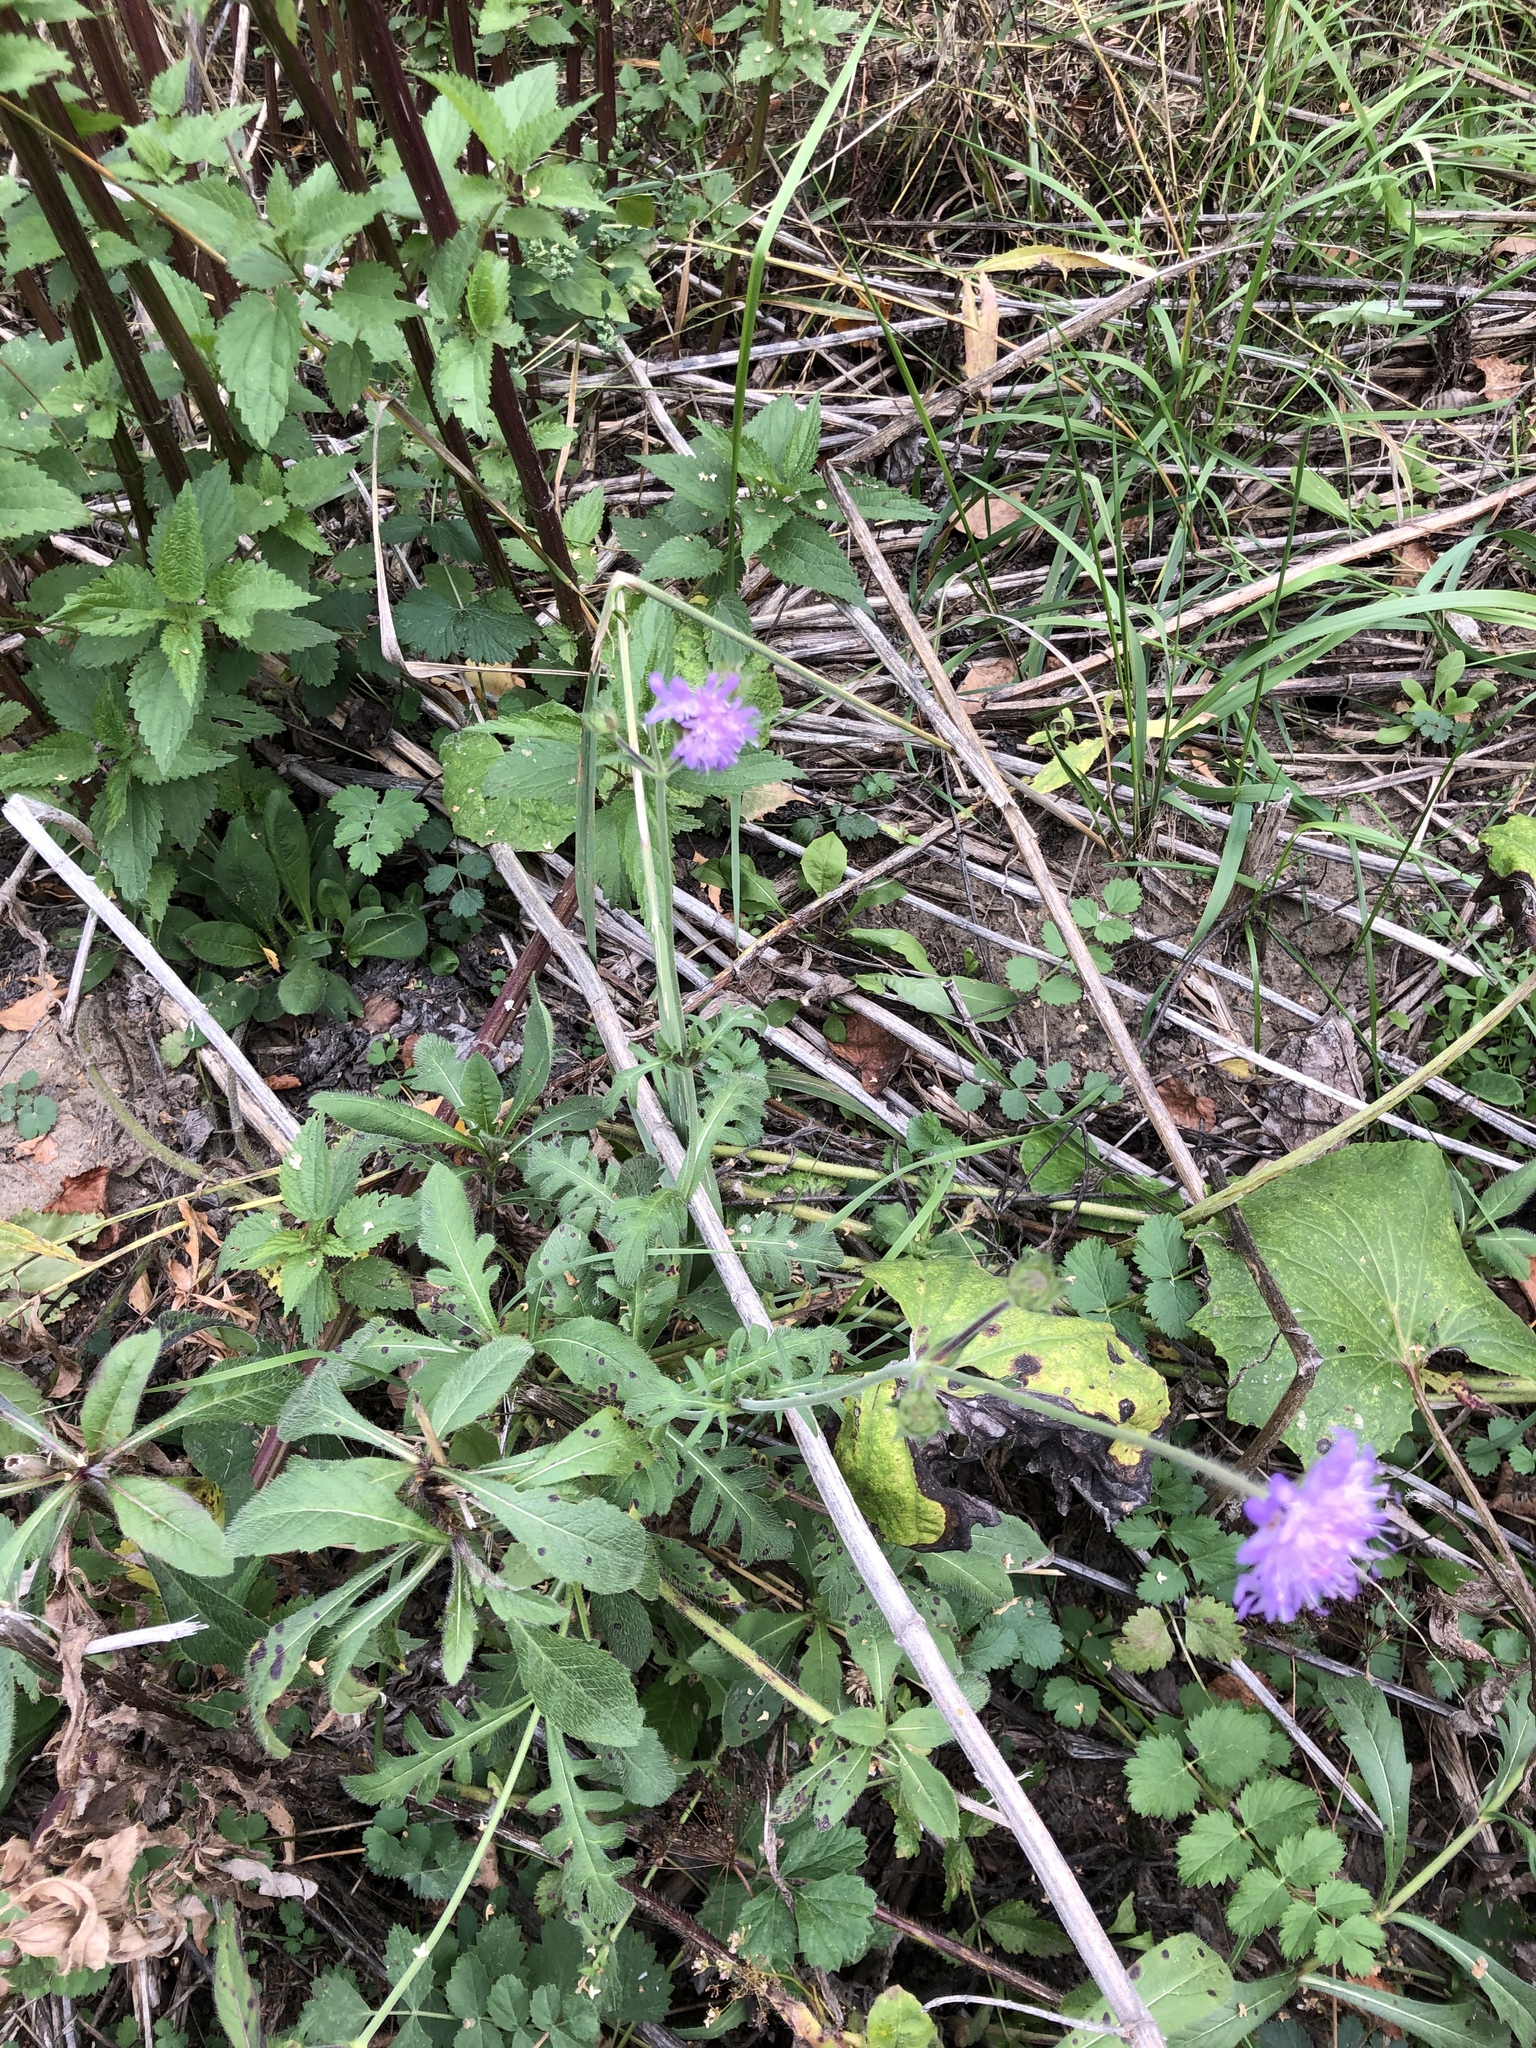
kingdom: Plantae
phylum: Tracheophyta
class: Magnoliopsida
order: Dipsacales
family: Caprifoliaceae
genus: Knautia
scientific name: Knautia arvensis
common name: Field scabiosa
